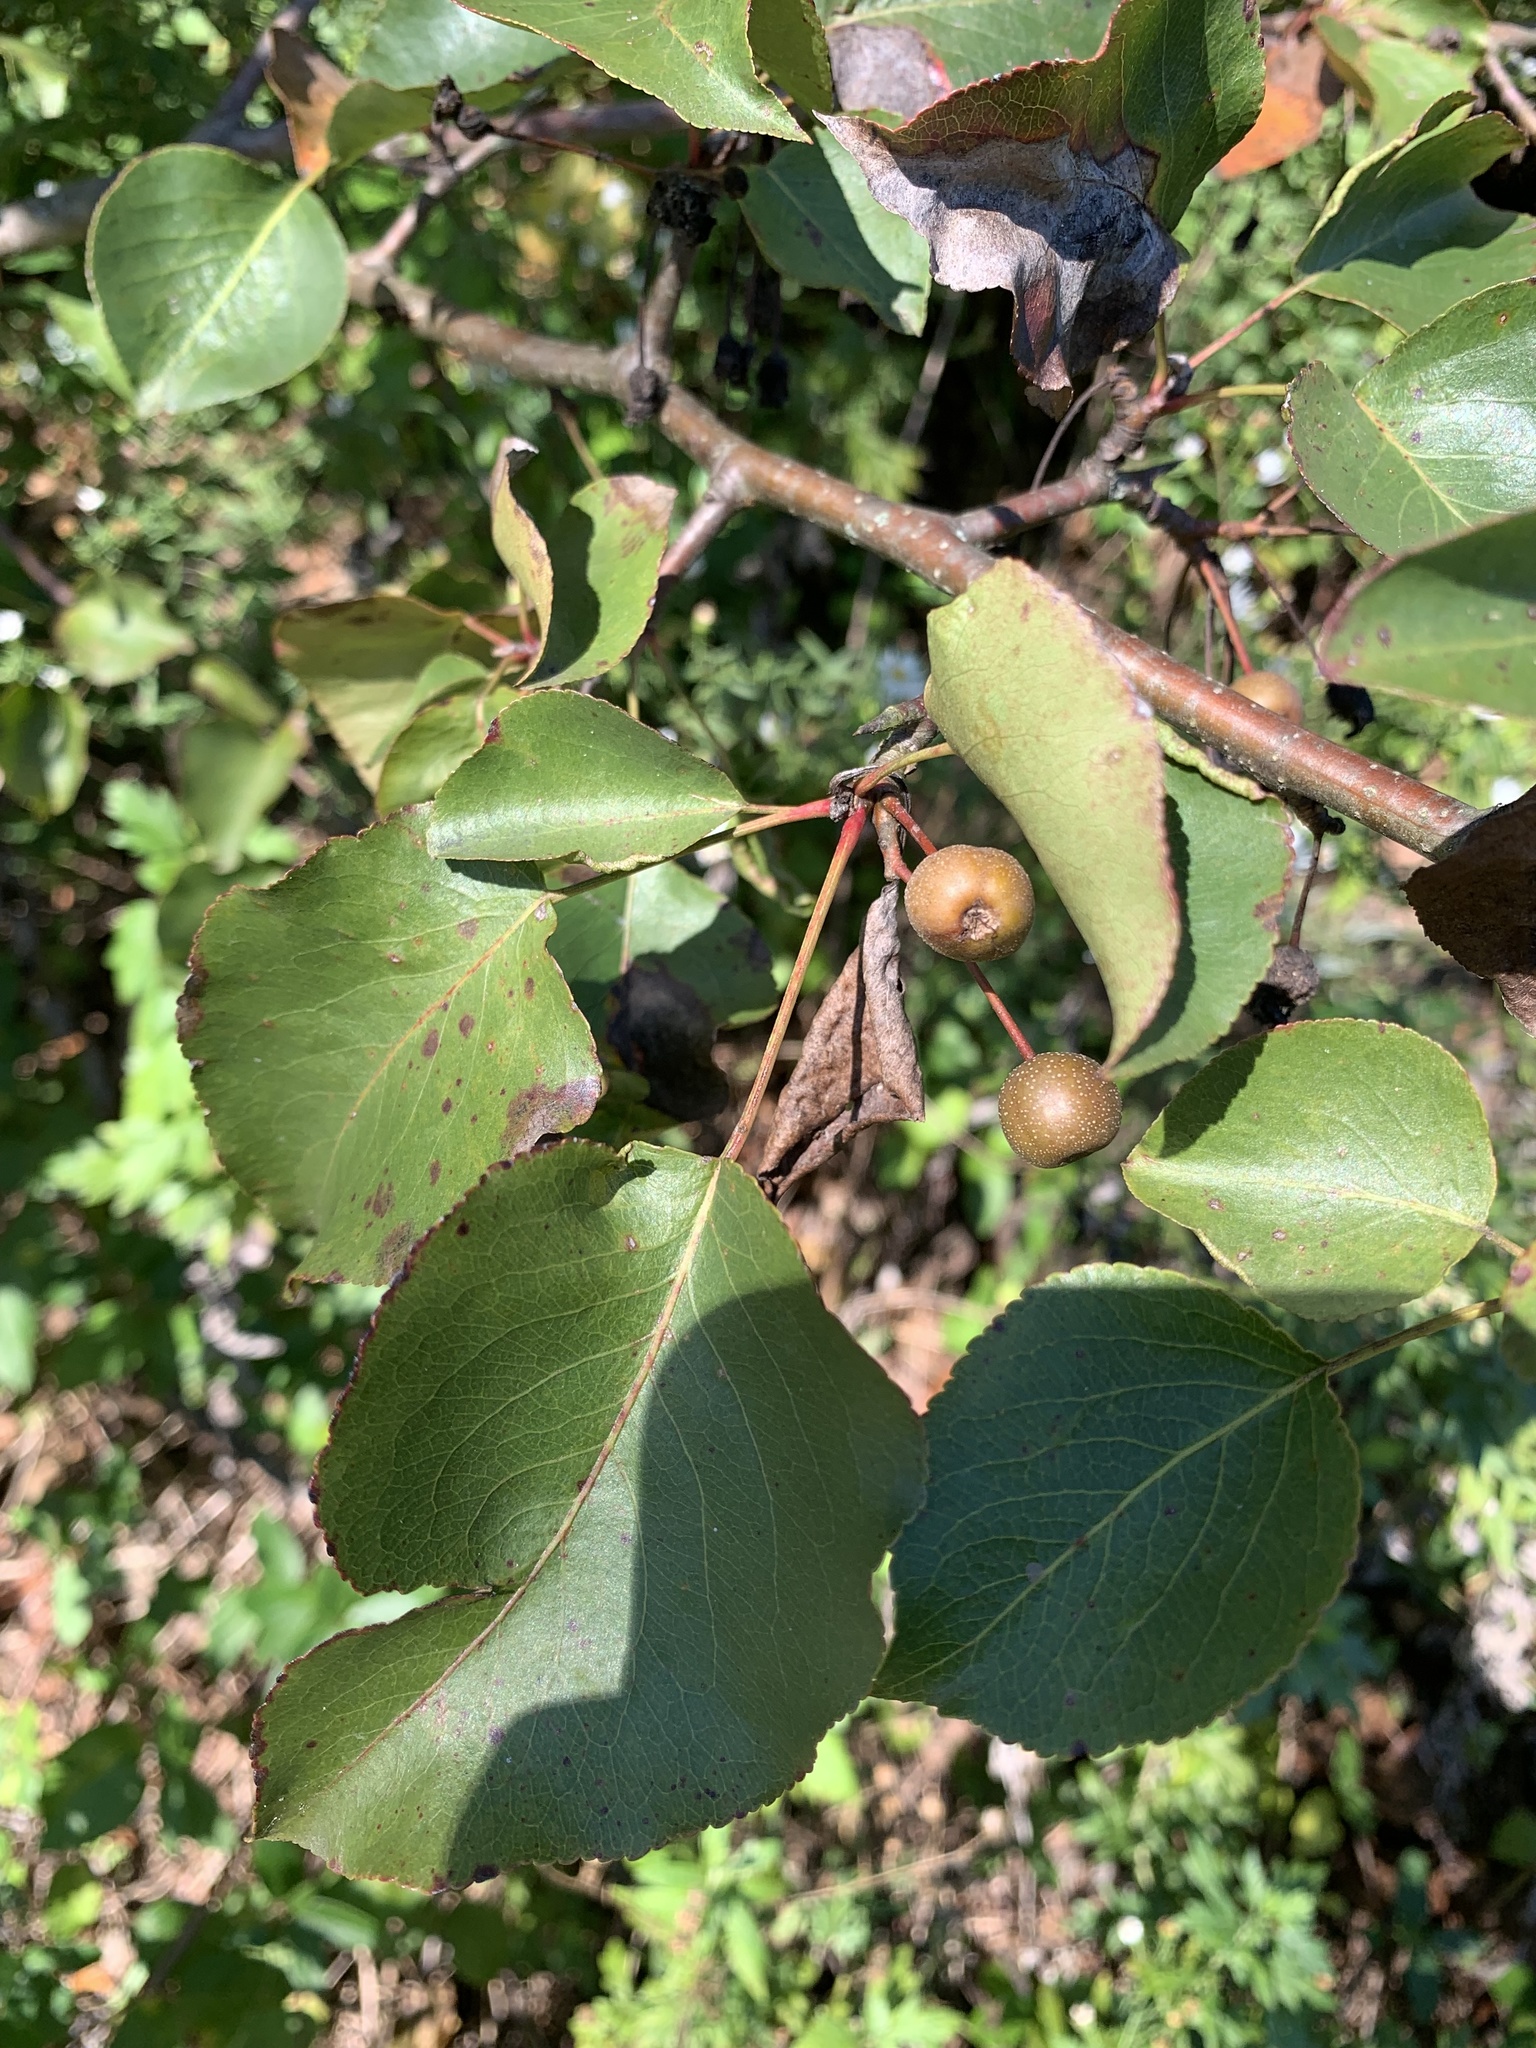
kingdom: Plantae
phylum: Tracheophyta
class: Magnoliopsida
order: Rosales
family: Rosaceae
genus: Pyrus
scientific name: Pyrus calleryana
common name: Callery pear
